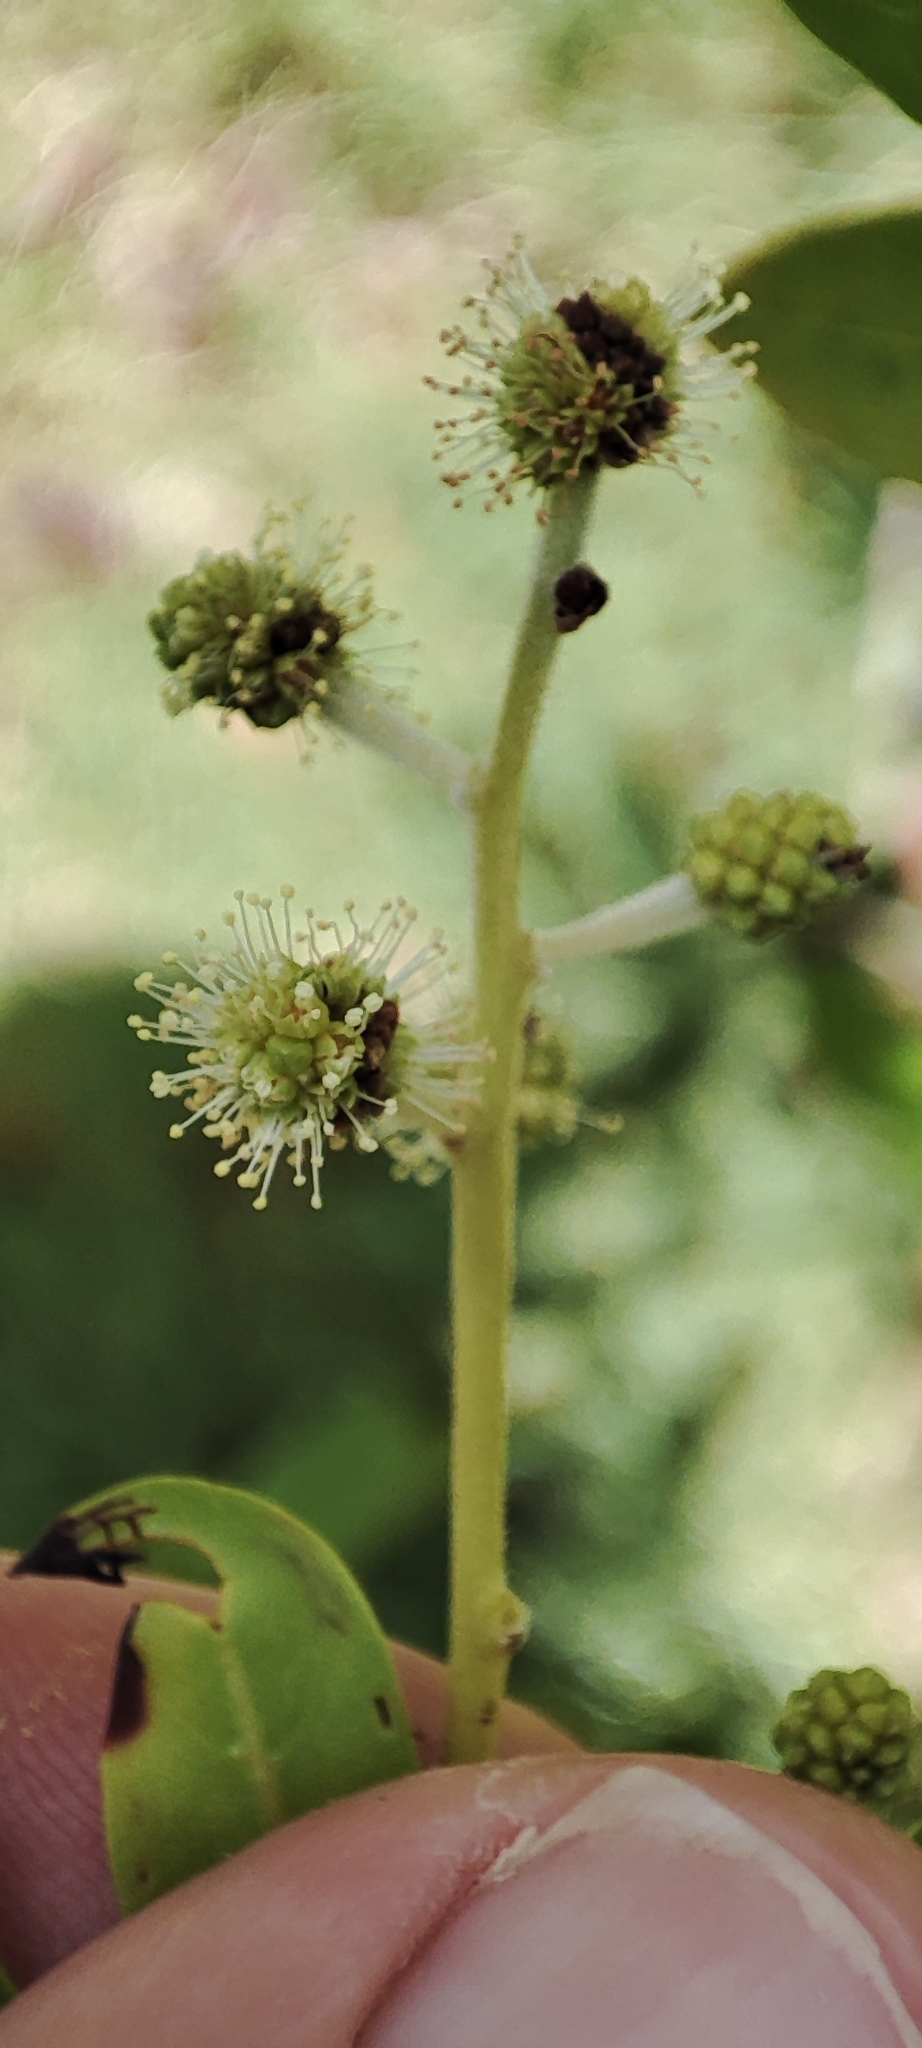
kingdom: Plantae
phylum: Tracheophyta
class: Magnoliopsida
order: Myrtales
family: Combretaceae
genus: Conocarpus
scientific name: Conocarpus erectus
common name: Button mangrove
